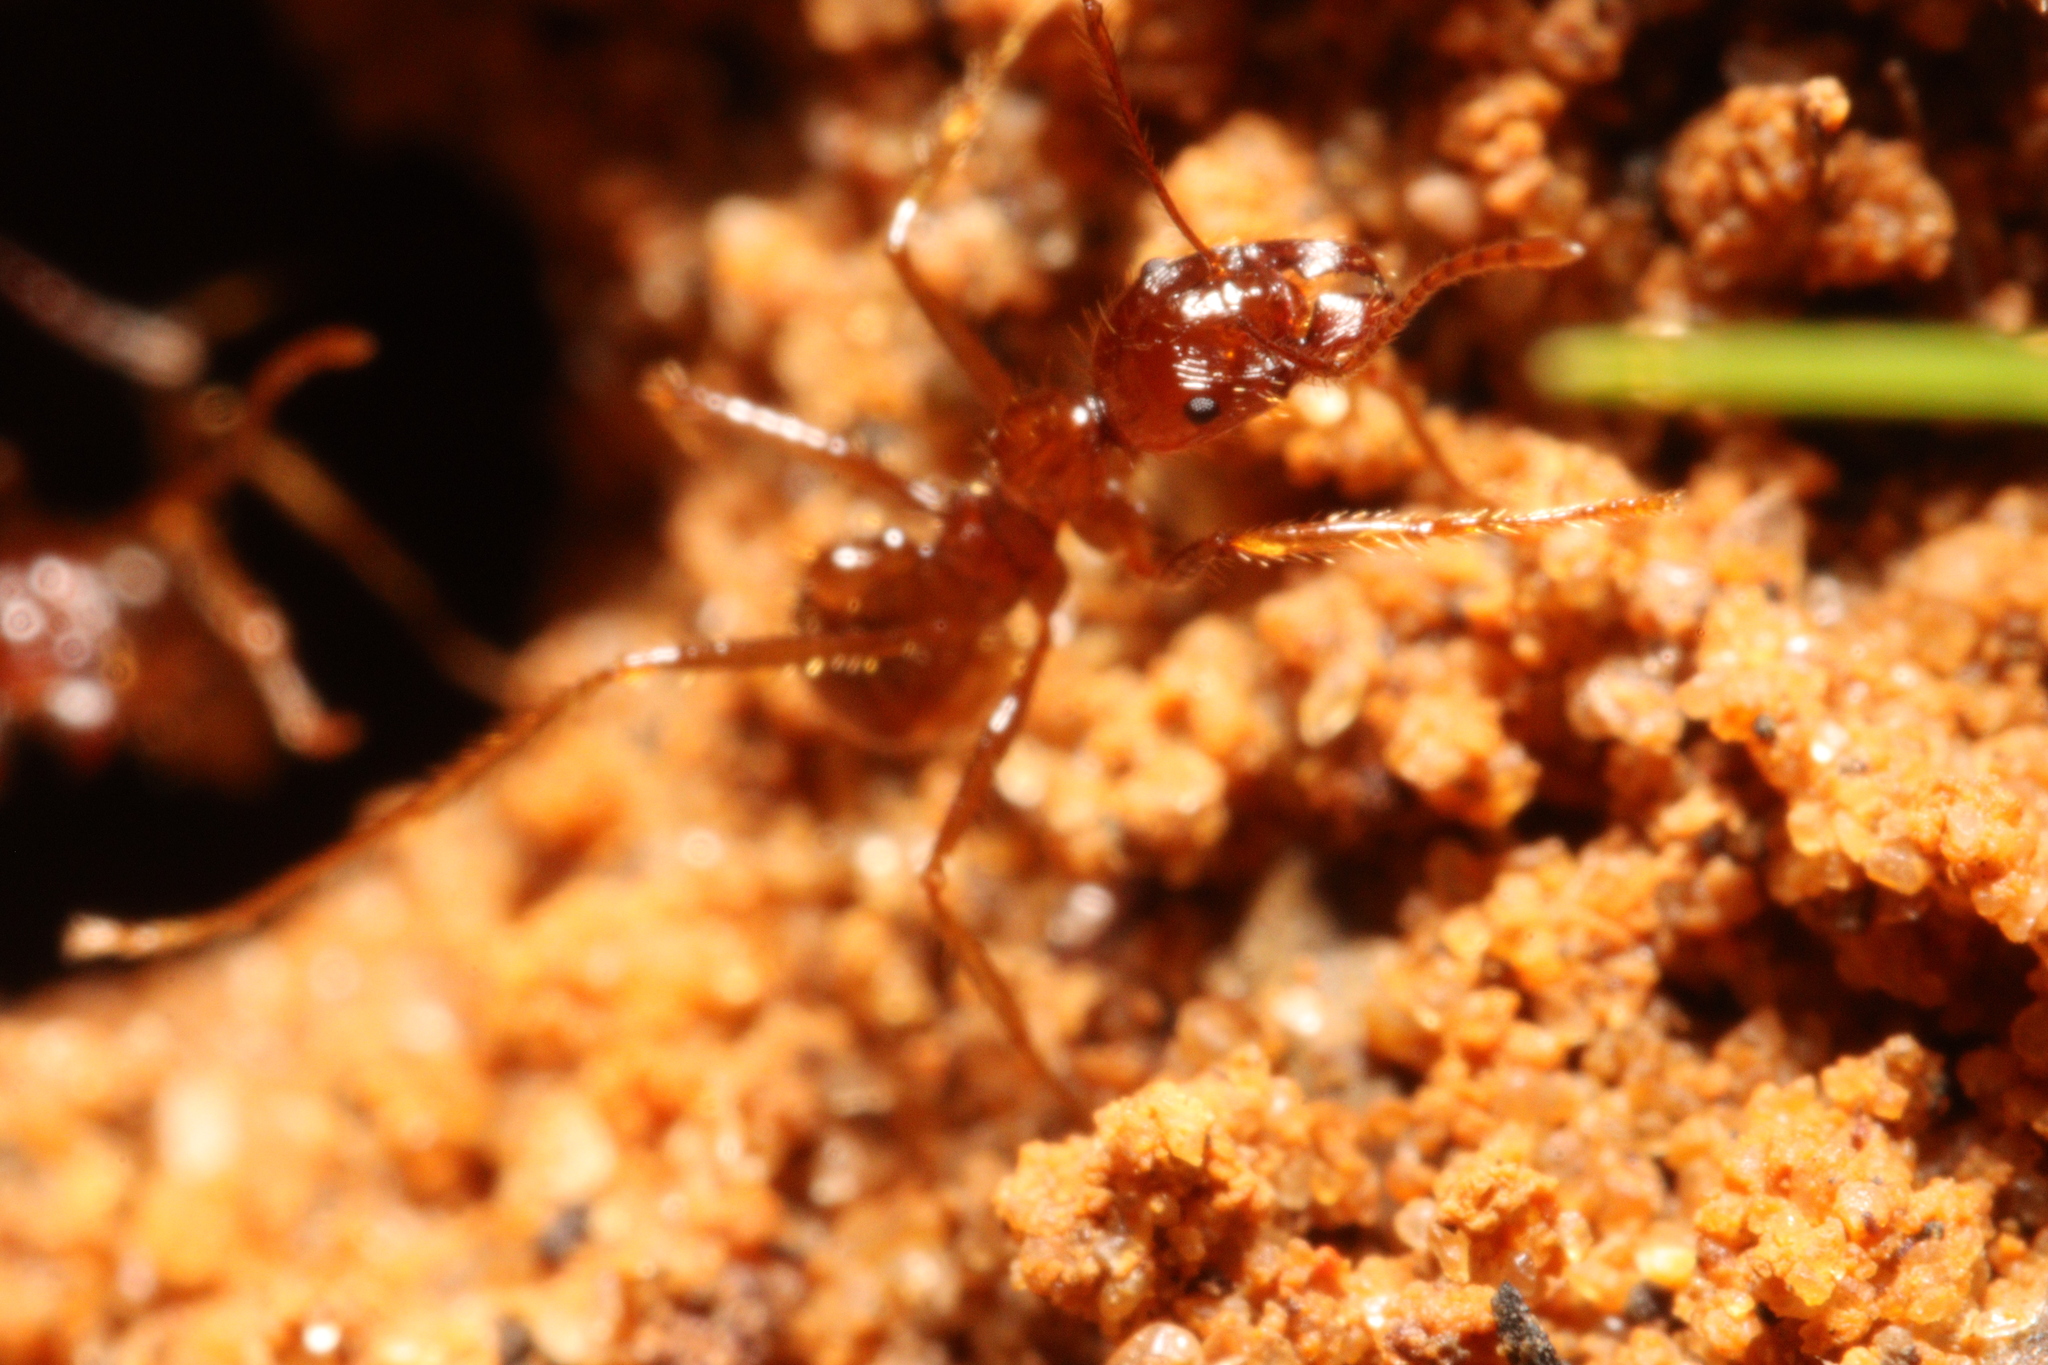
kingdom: Animalia
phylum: Arthropoda
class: Insecta
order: Hymenoptera
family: Formicidae
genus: Aphaenogaster
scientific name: Aphaenogaster longiceps
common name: Funnel ant
